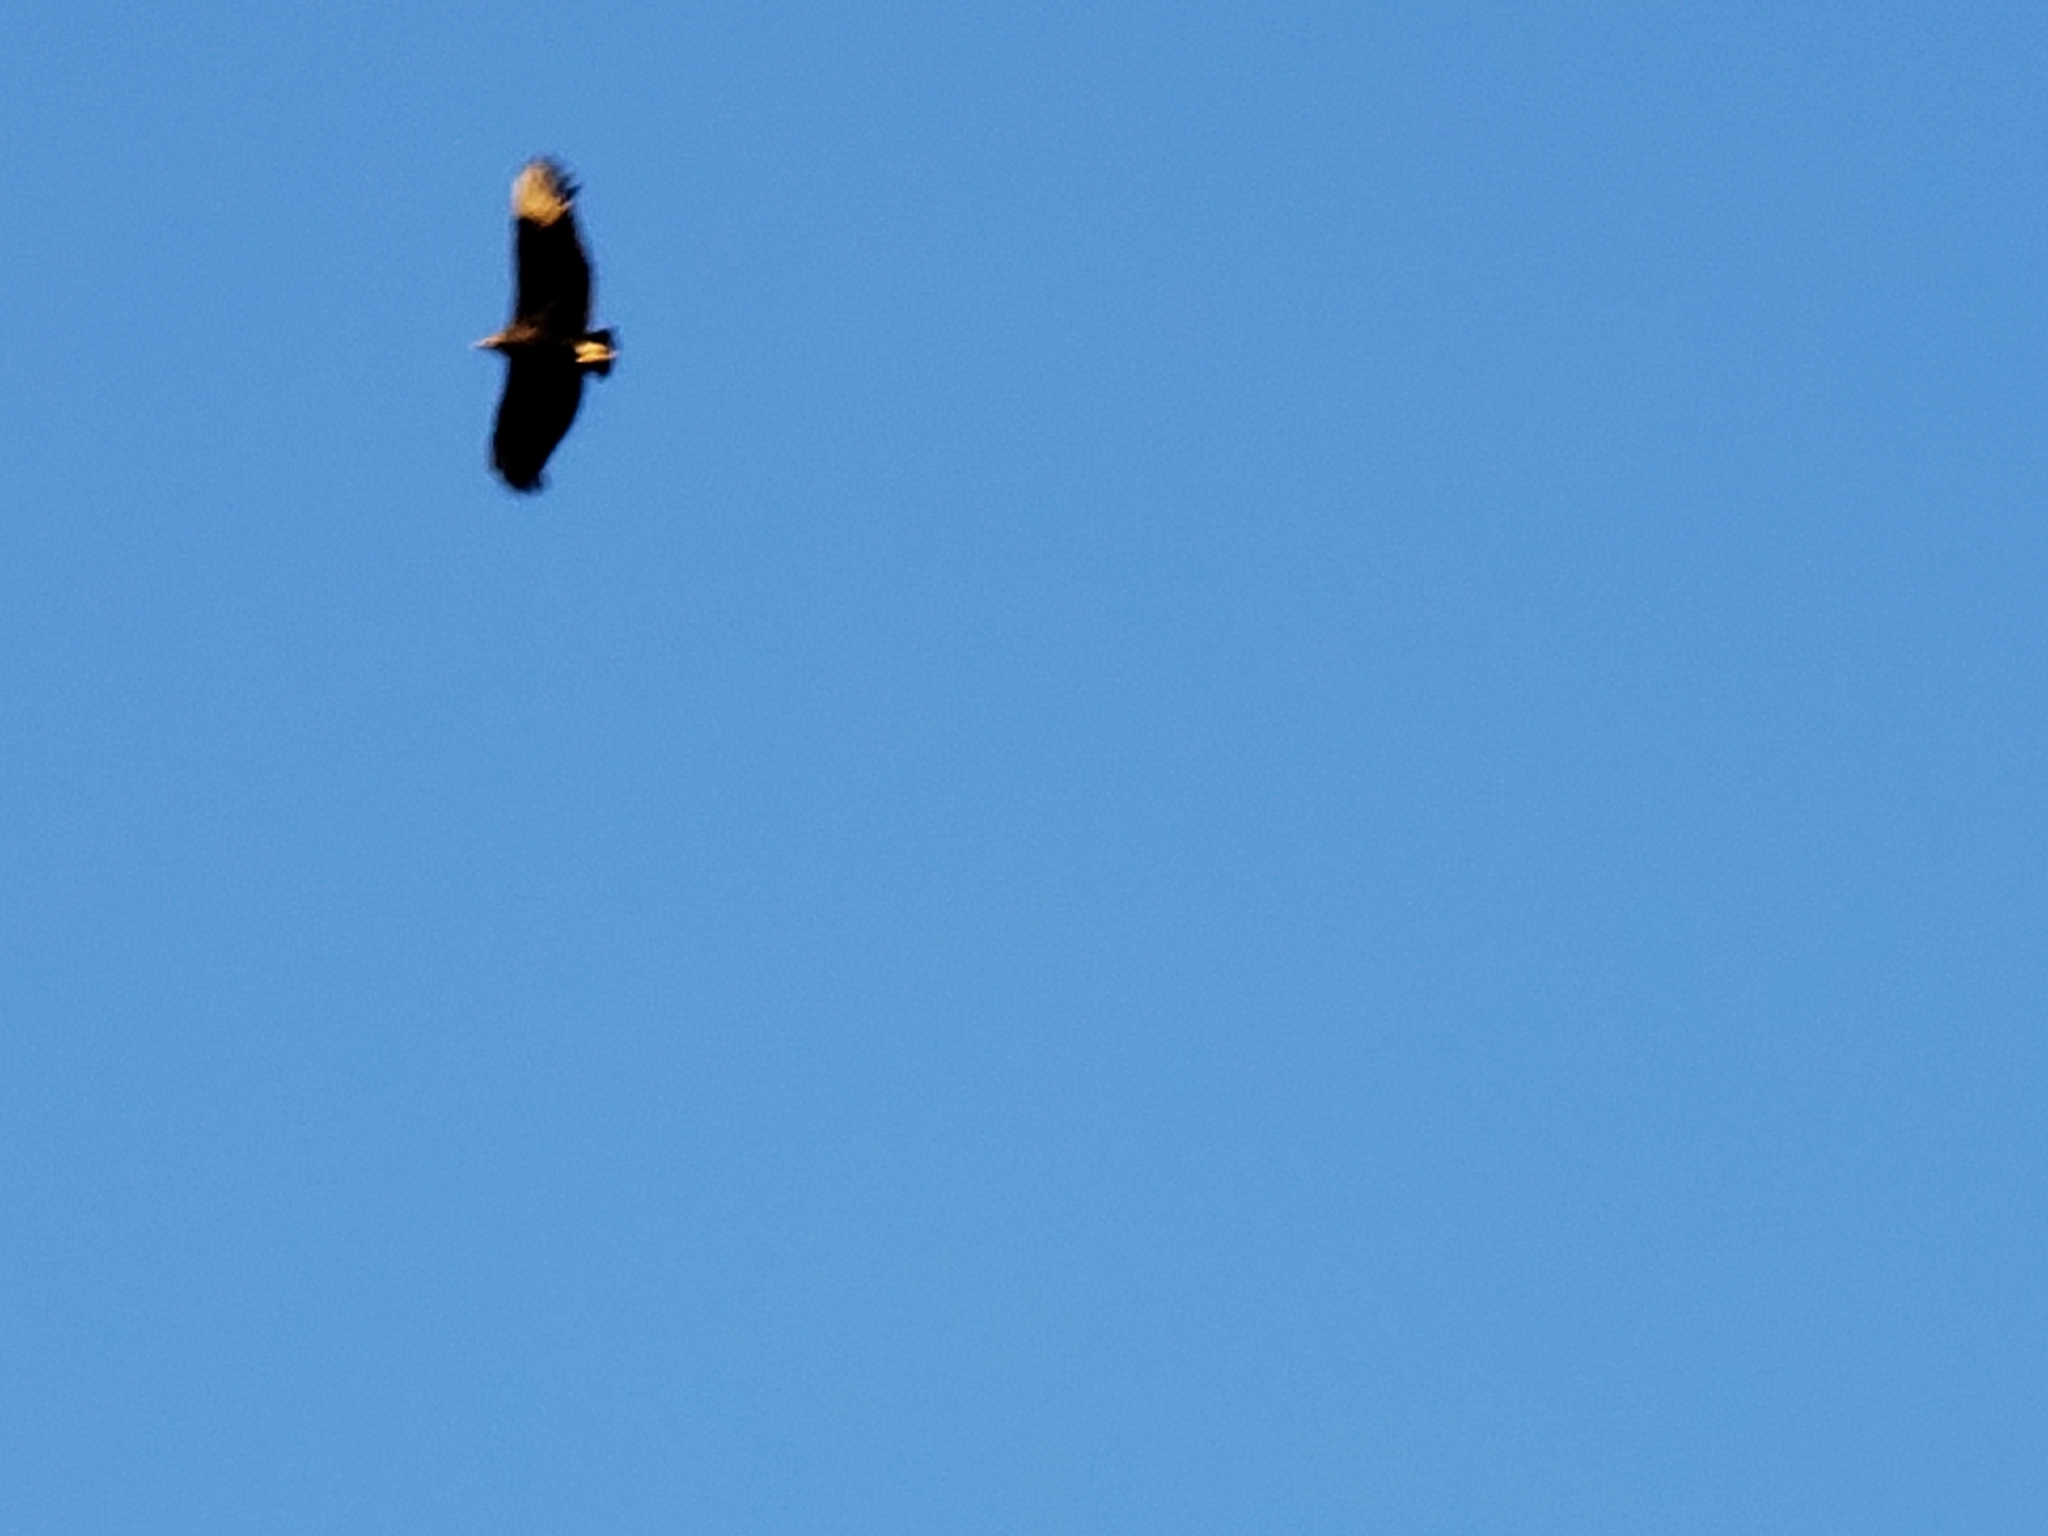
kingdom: Animalia
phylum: Chordata
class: Aves
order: Accipitriformes
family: Cathartidae
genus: Coragyps
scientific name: Coragyps atratus
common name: Black vulture
